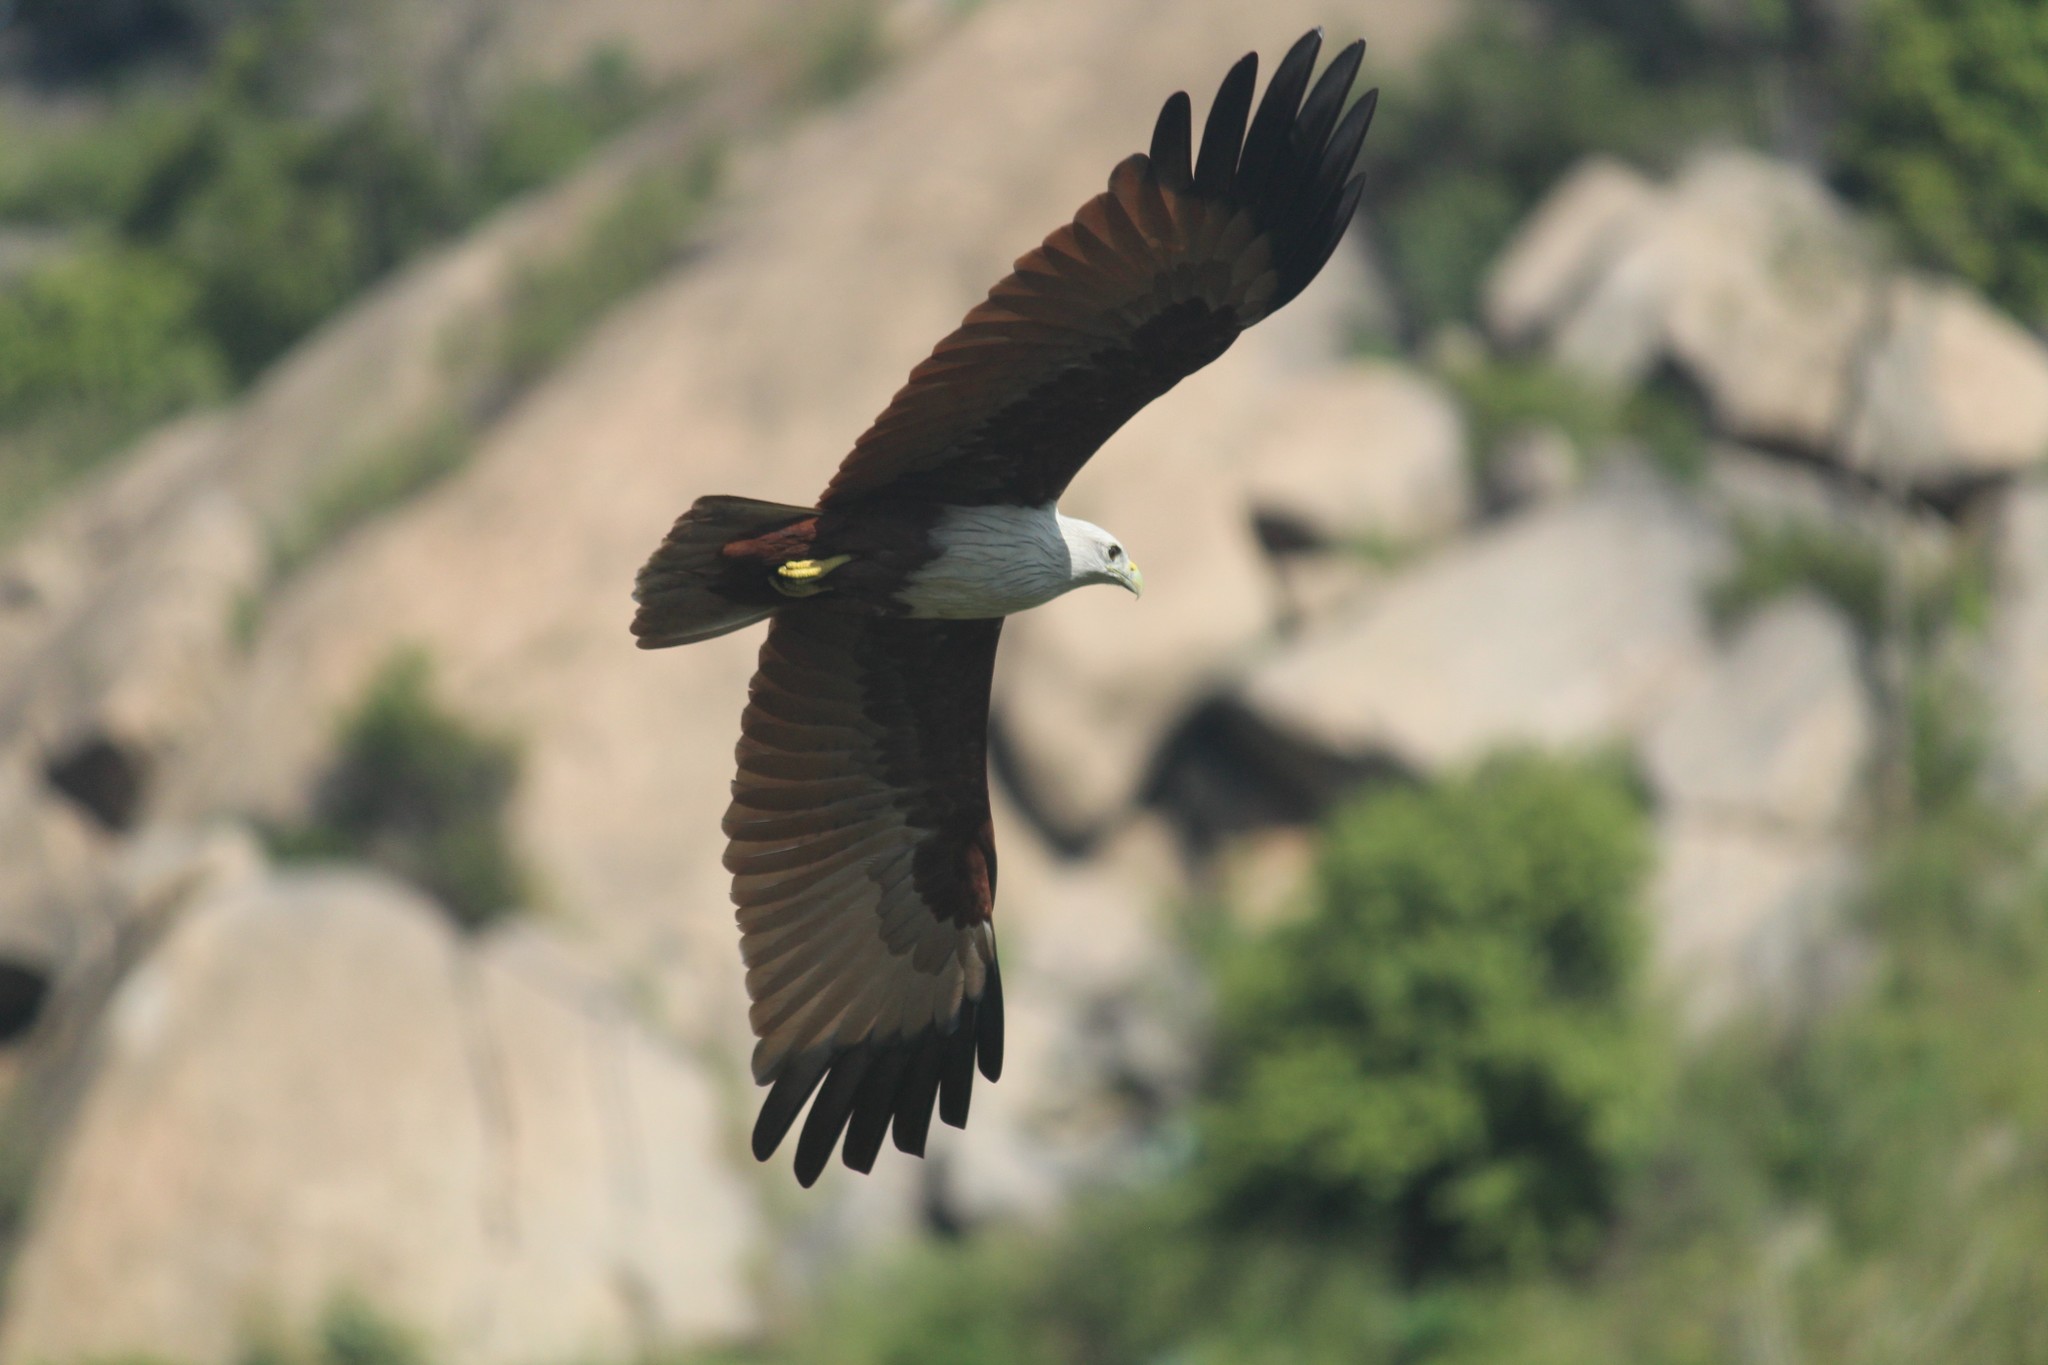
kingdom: Animalia
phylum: Chordata
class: Aves
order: Accipitriformes
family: Accipitridae
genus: Haliastur
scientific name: Haliastur indus
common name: Brahminy kite
